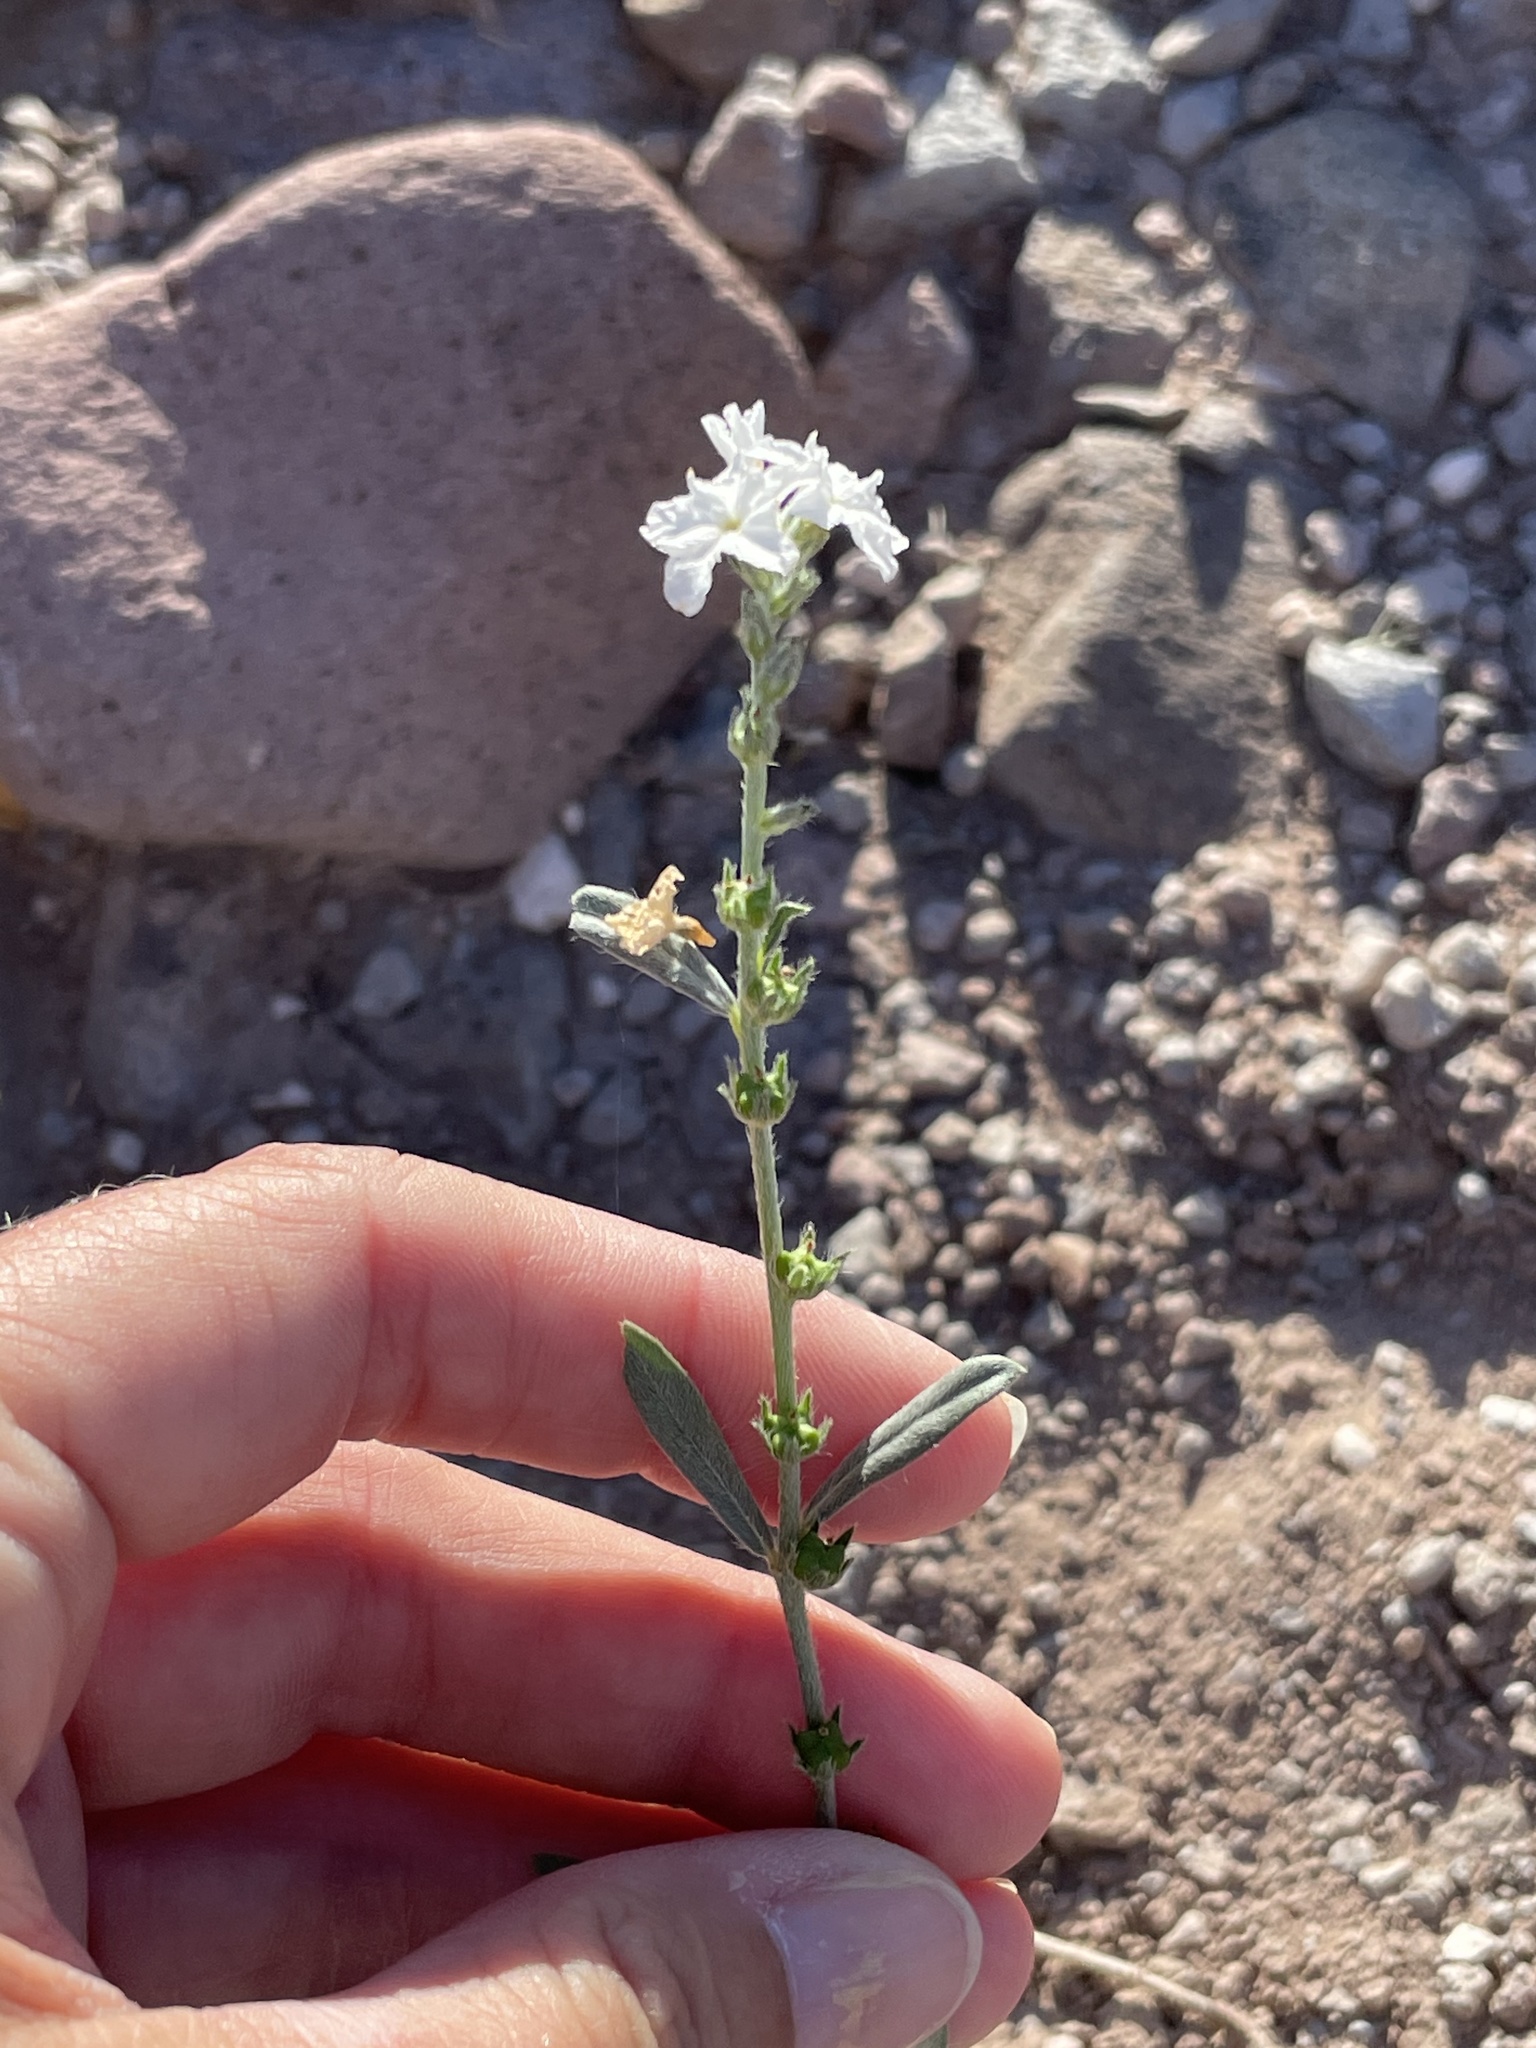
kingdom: Plantae
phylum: Tracheophyta
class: Magnoliopsida
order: Boraginales
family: Heliotropiaceae
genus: Euploca
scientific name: Euploca wigginsii
